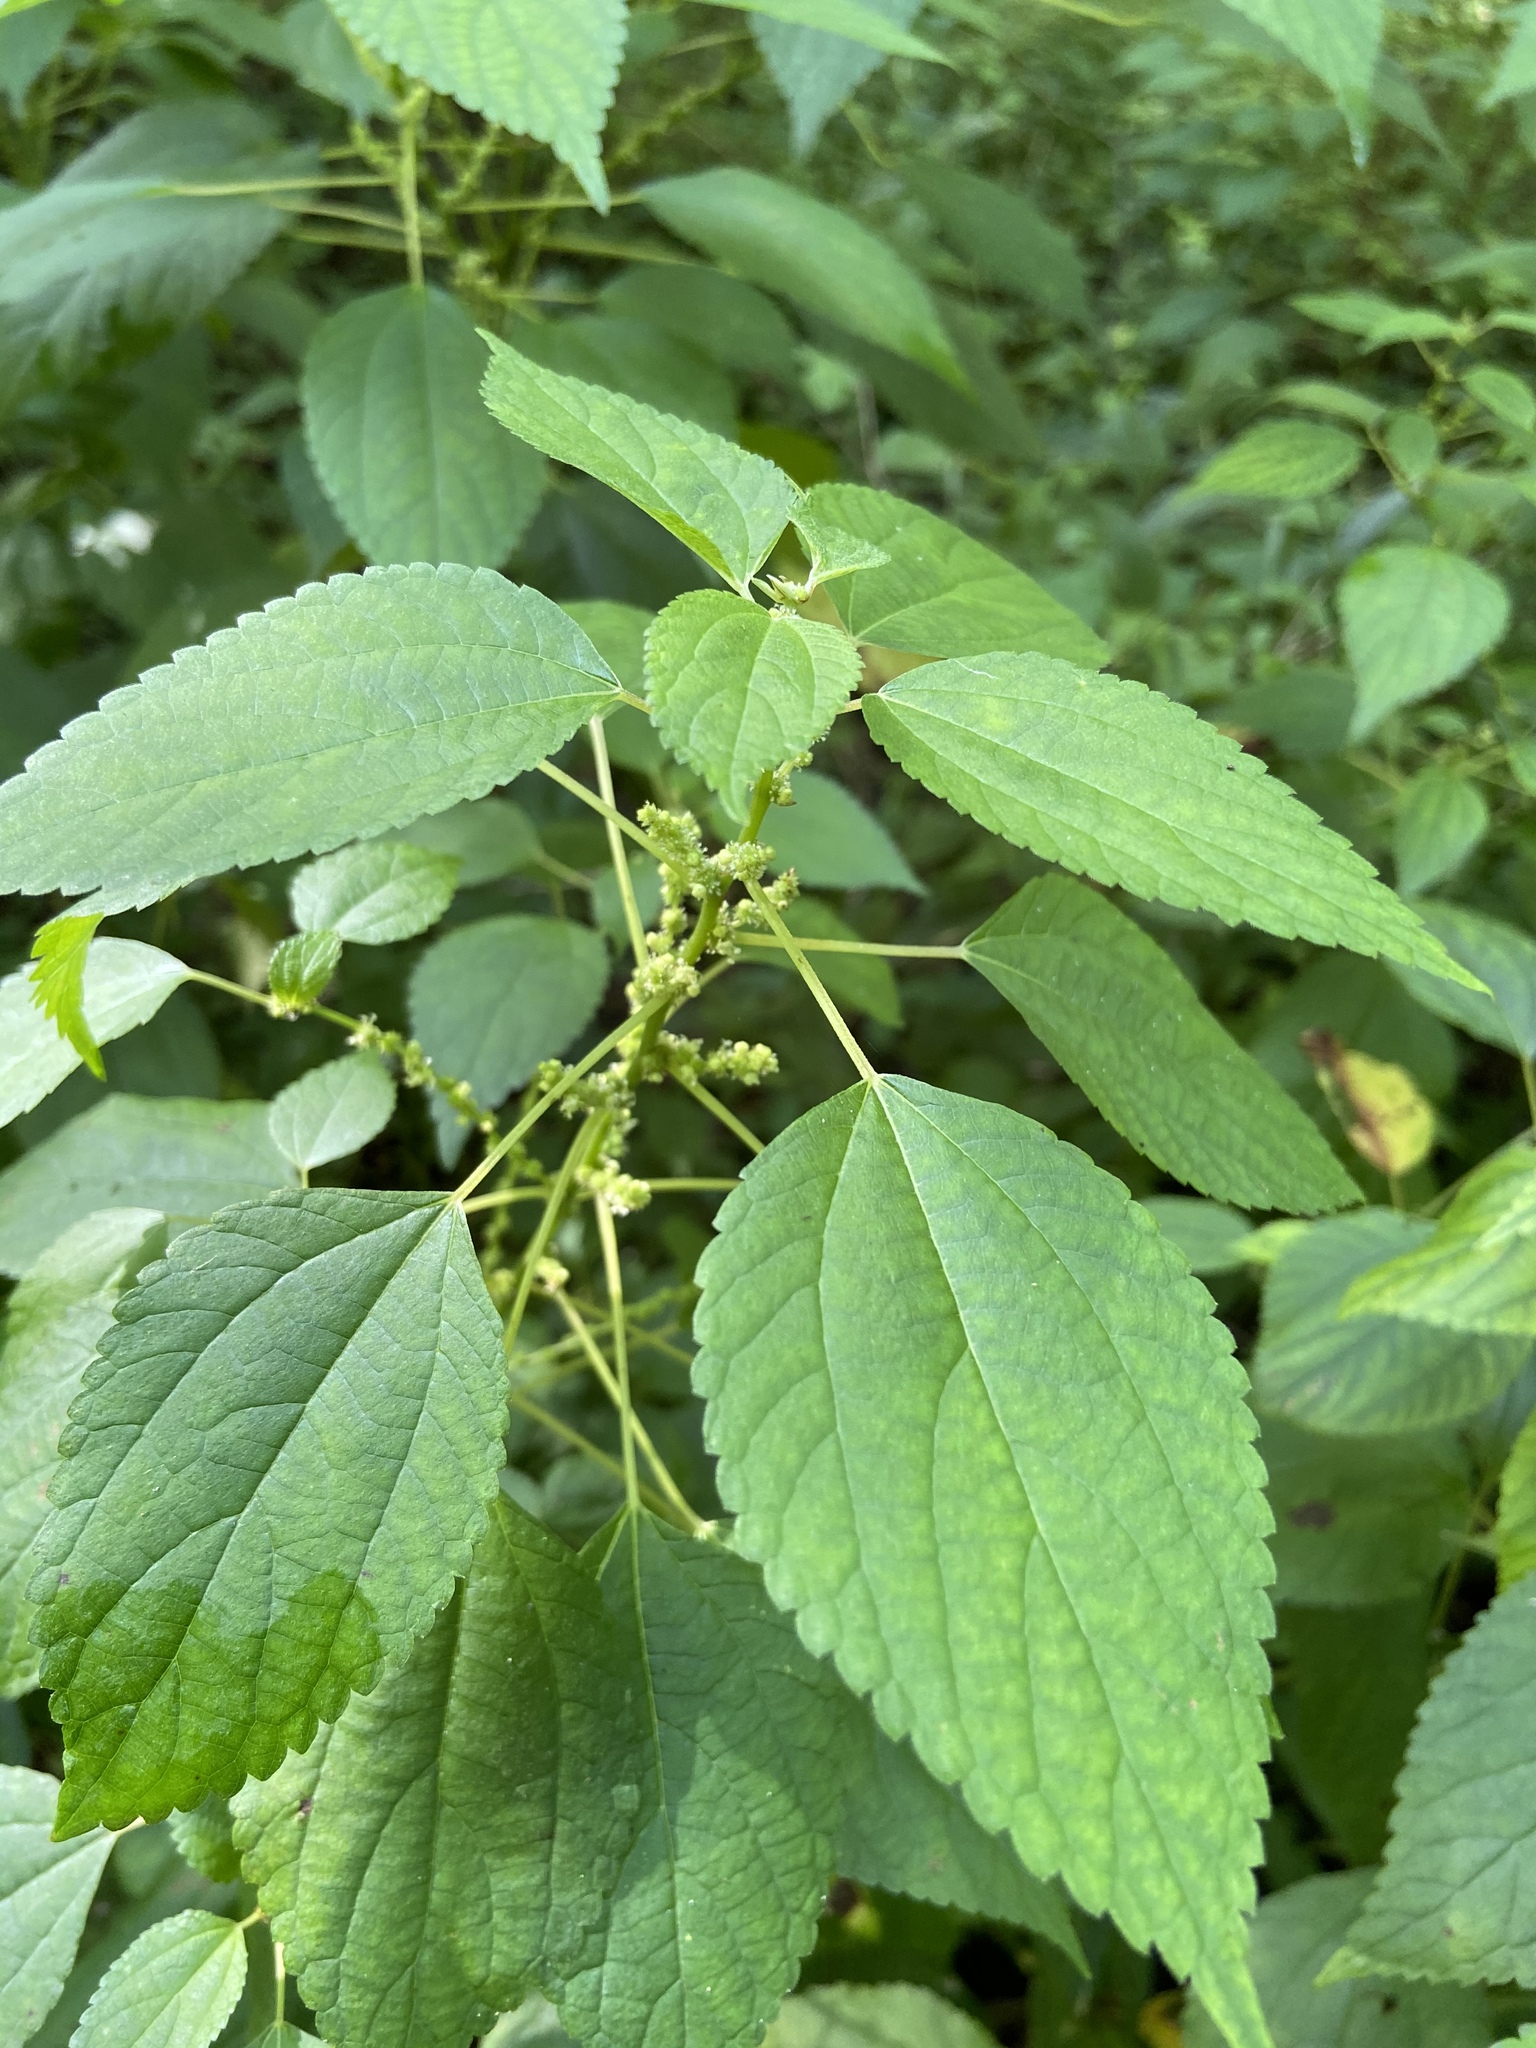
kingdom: Plantae
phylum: Tracheophyta
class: Magnoliopsida
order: Rosales
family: Urticaceae
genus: Boehmeria
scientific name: Boehmeria cylindrica
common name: Bog-hemp
